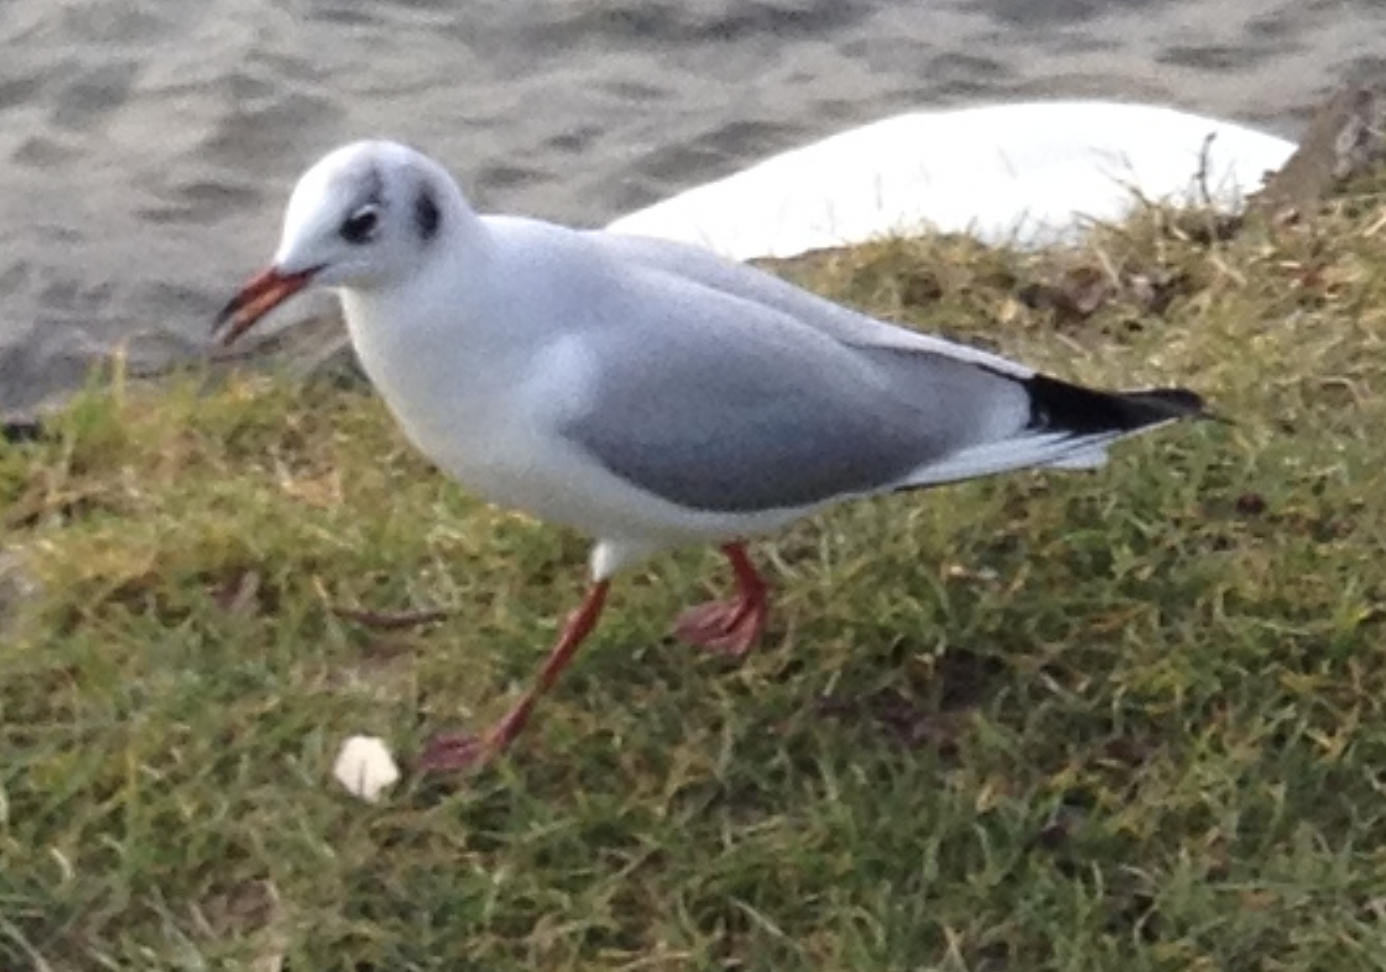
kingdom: Animalia
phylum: Chordata
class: Aves
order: Charadriiformes
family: Laridae
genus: Chroicocephalus
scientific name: Chroicocephalus ridibundus
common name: Black-headed gull
